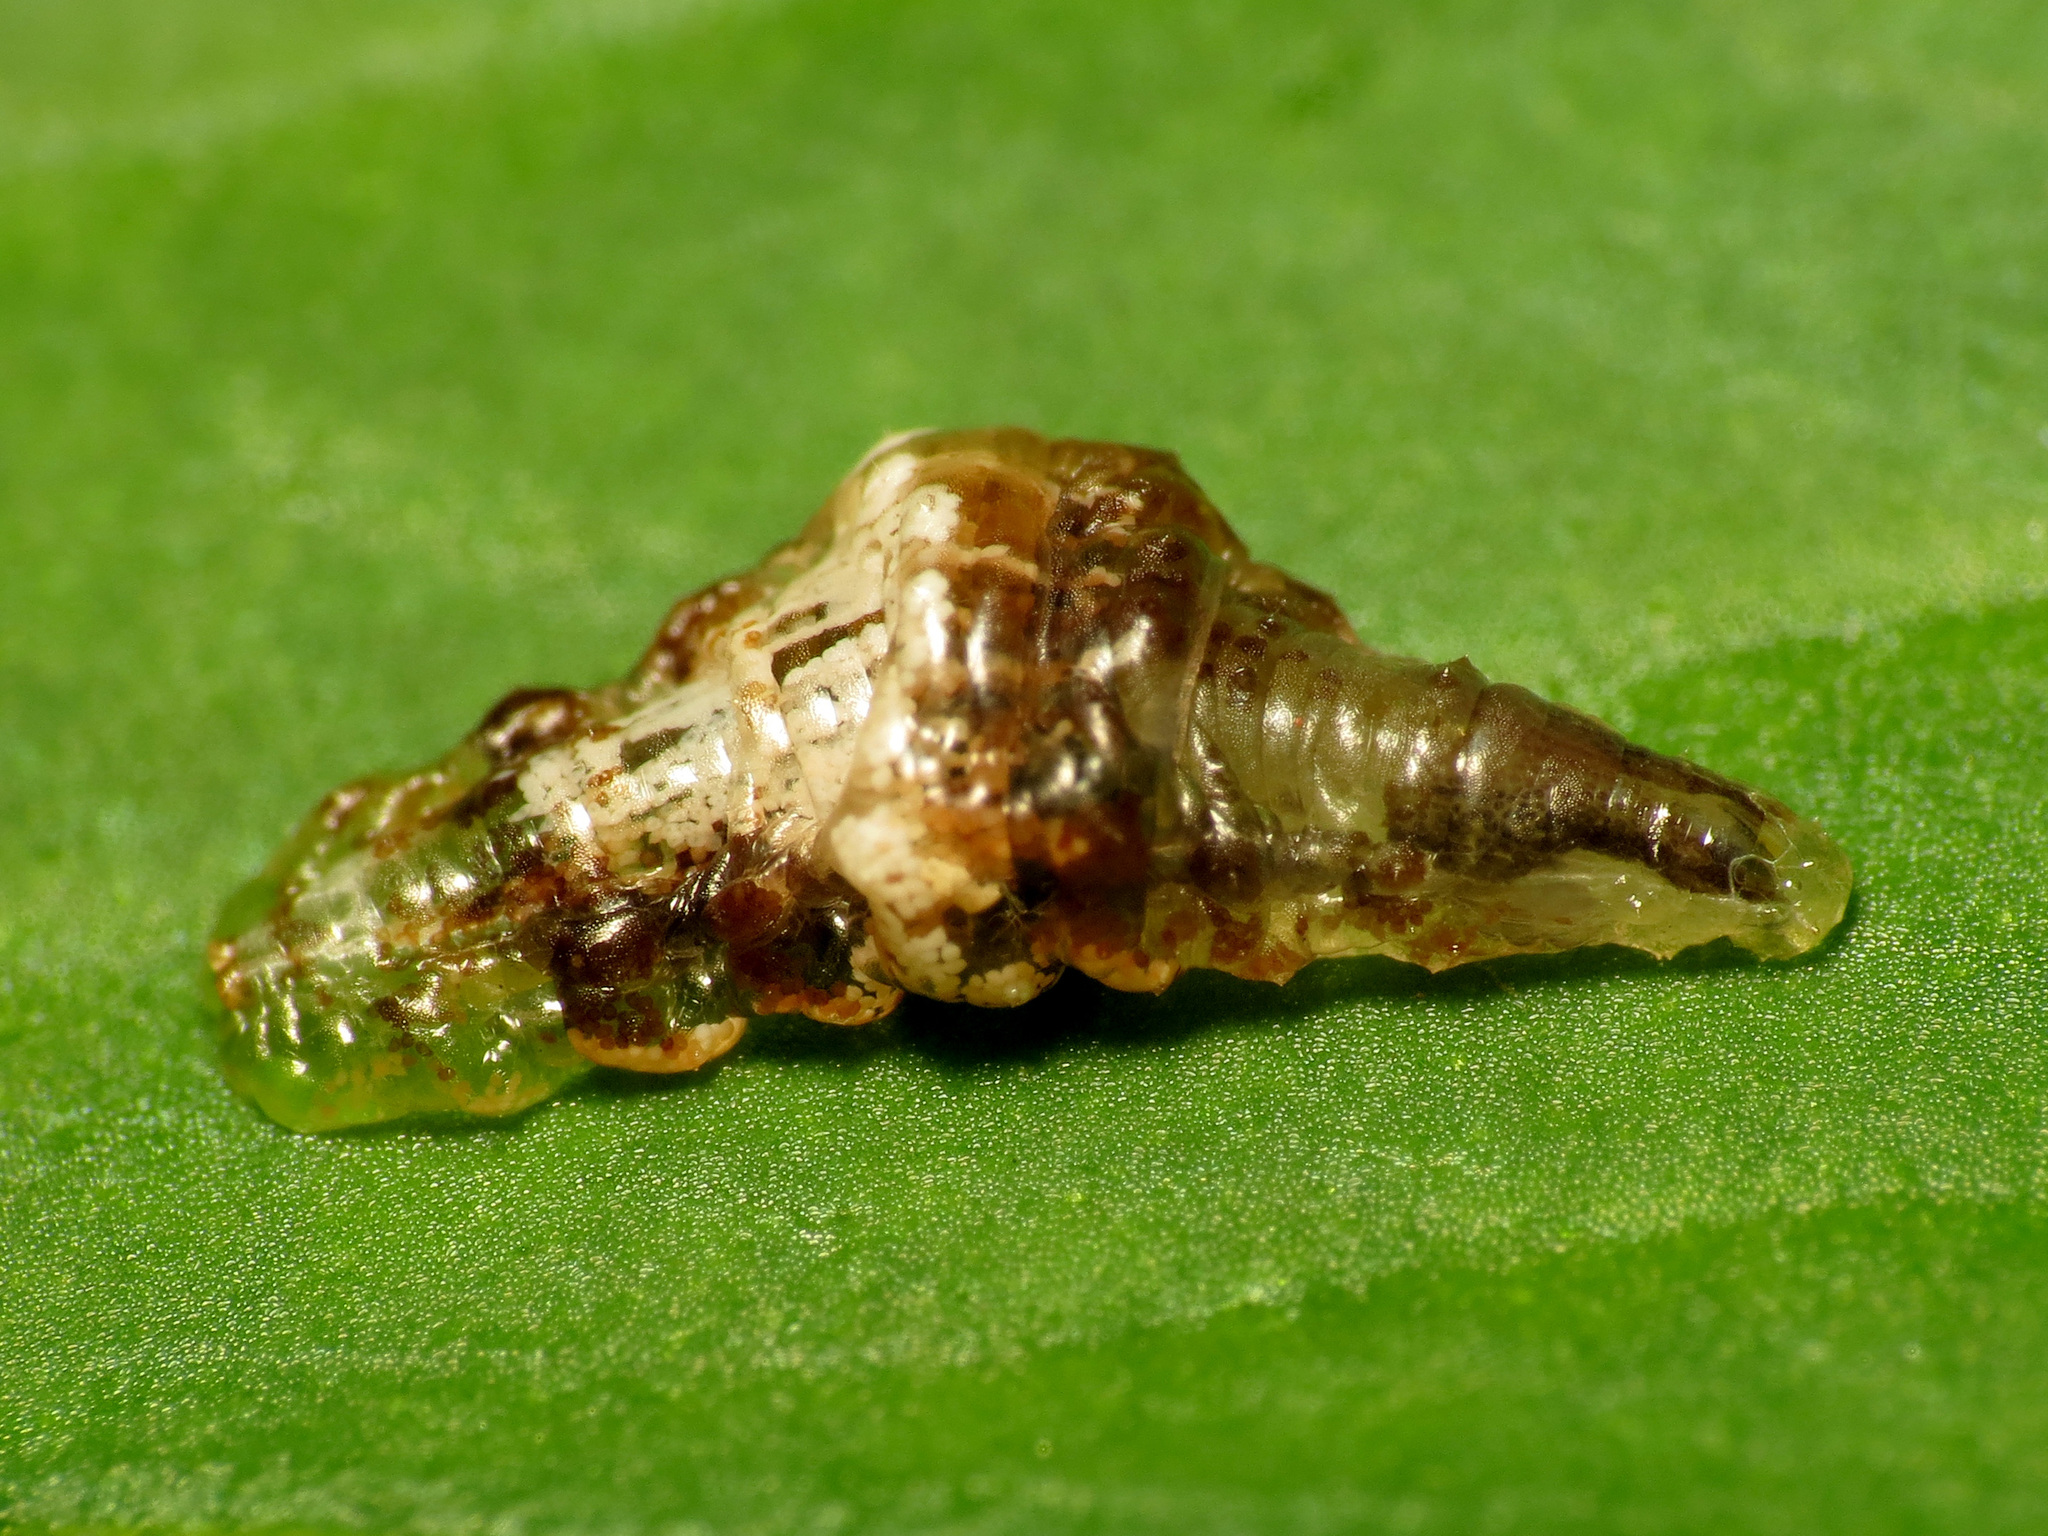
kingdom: Animalia
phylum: Arthropoda
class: Insecta
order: Diptera
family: Syrphidae
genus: Ocyptamus
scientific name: Ocyptamus fuscipennis
